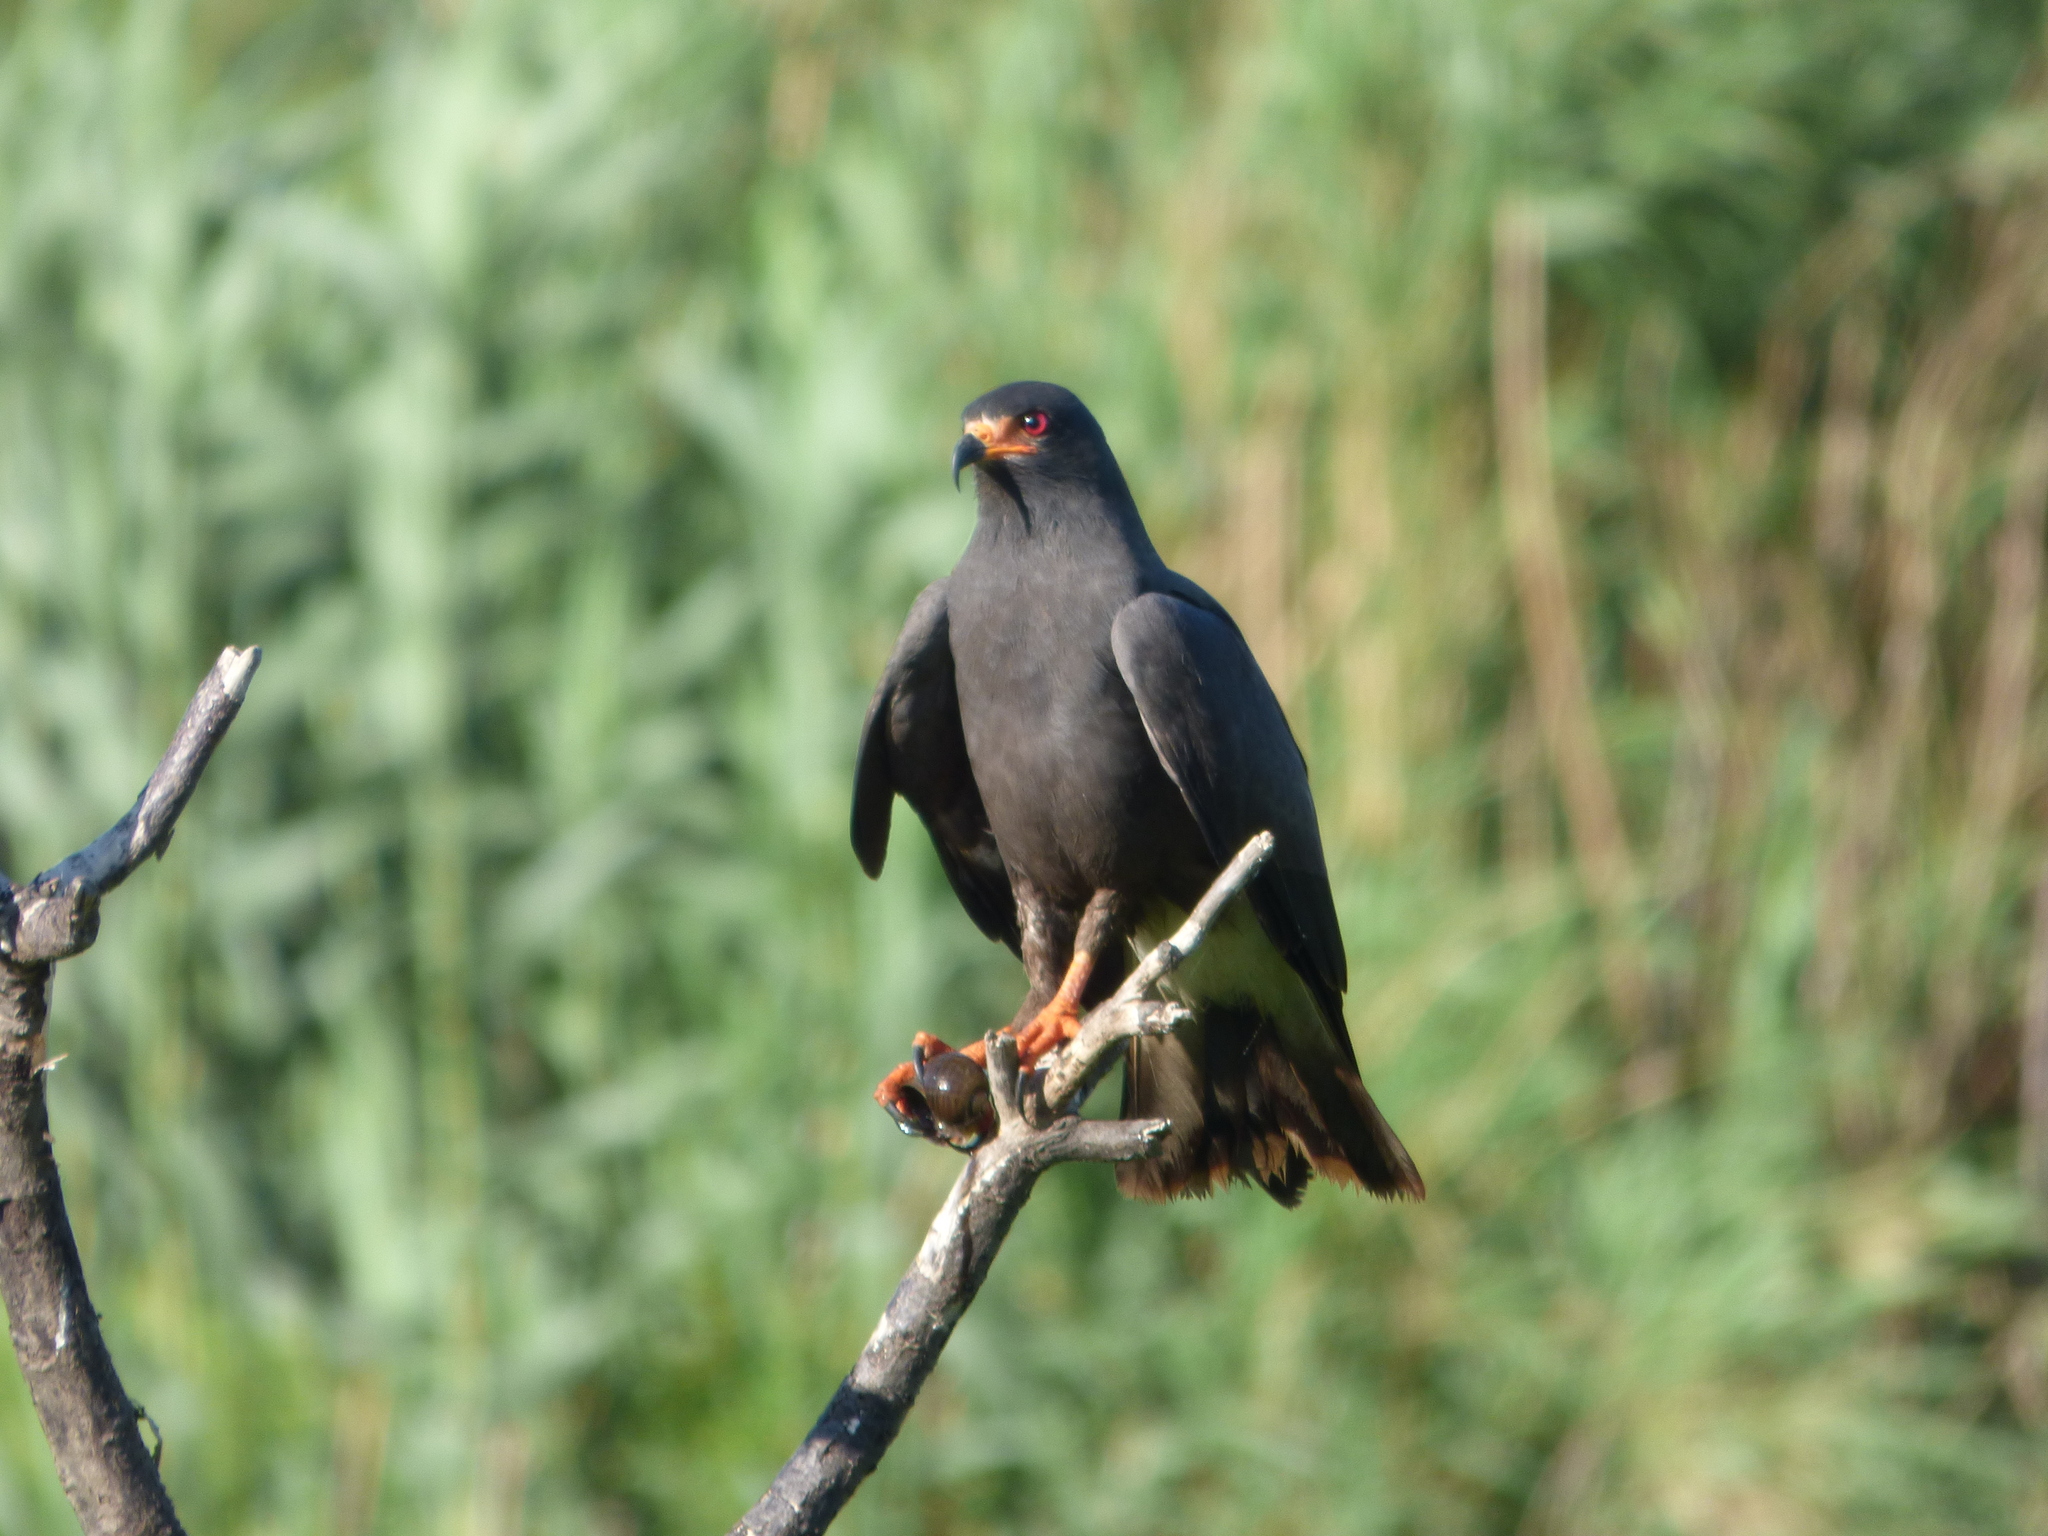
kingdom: Animalia
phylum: Chordata
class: Aves
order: Accipitriformes
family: Accipitridae
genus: Rostrhamus
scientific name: Rostrhamus sociabilis
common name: Snail kite
